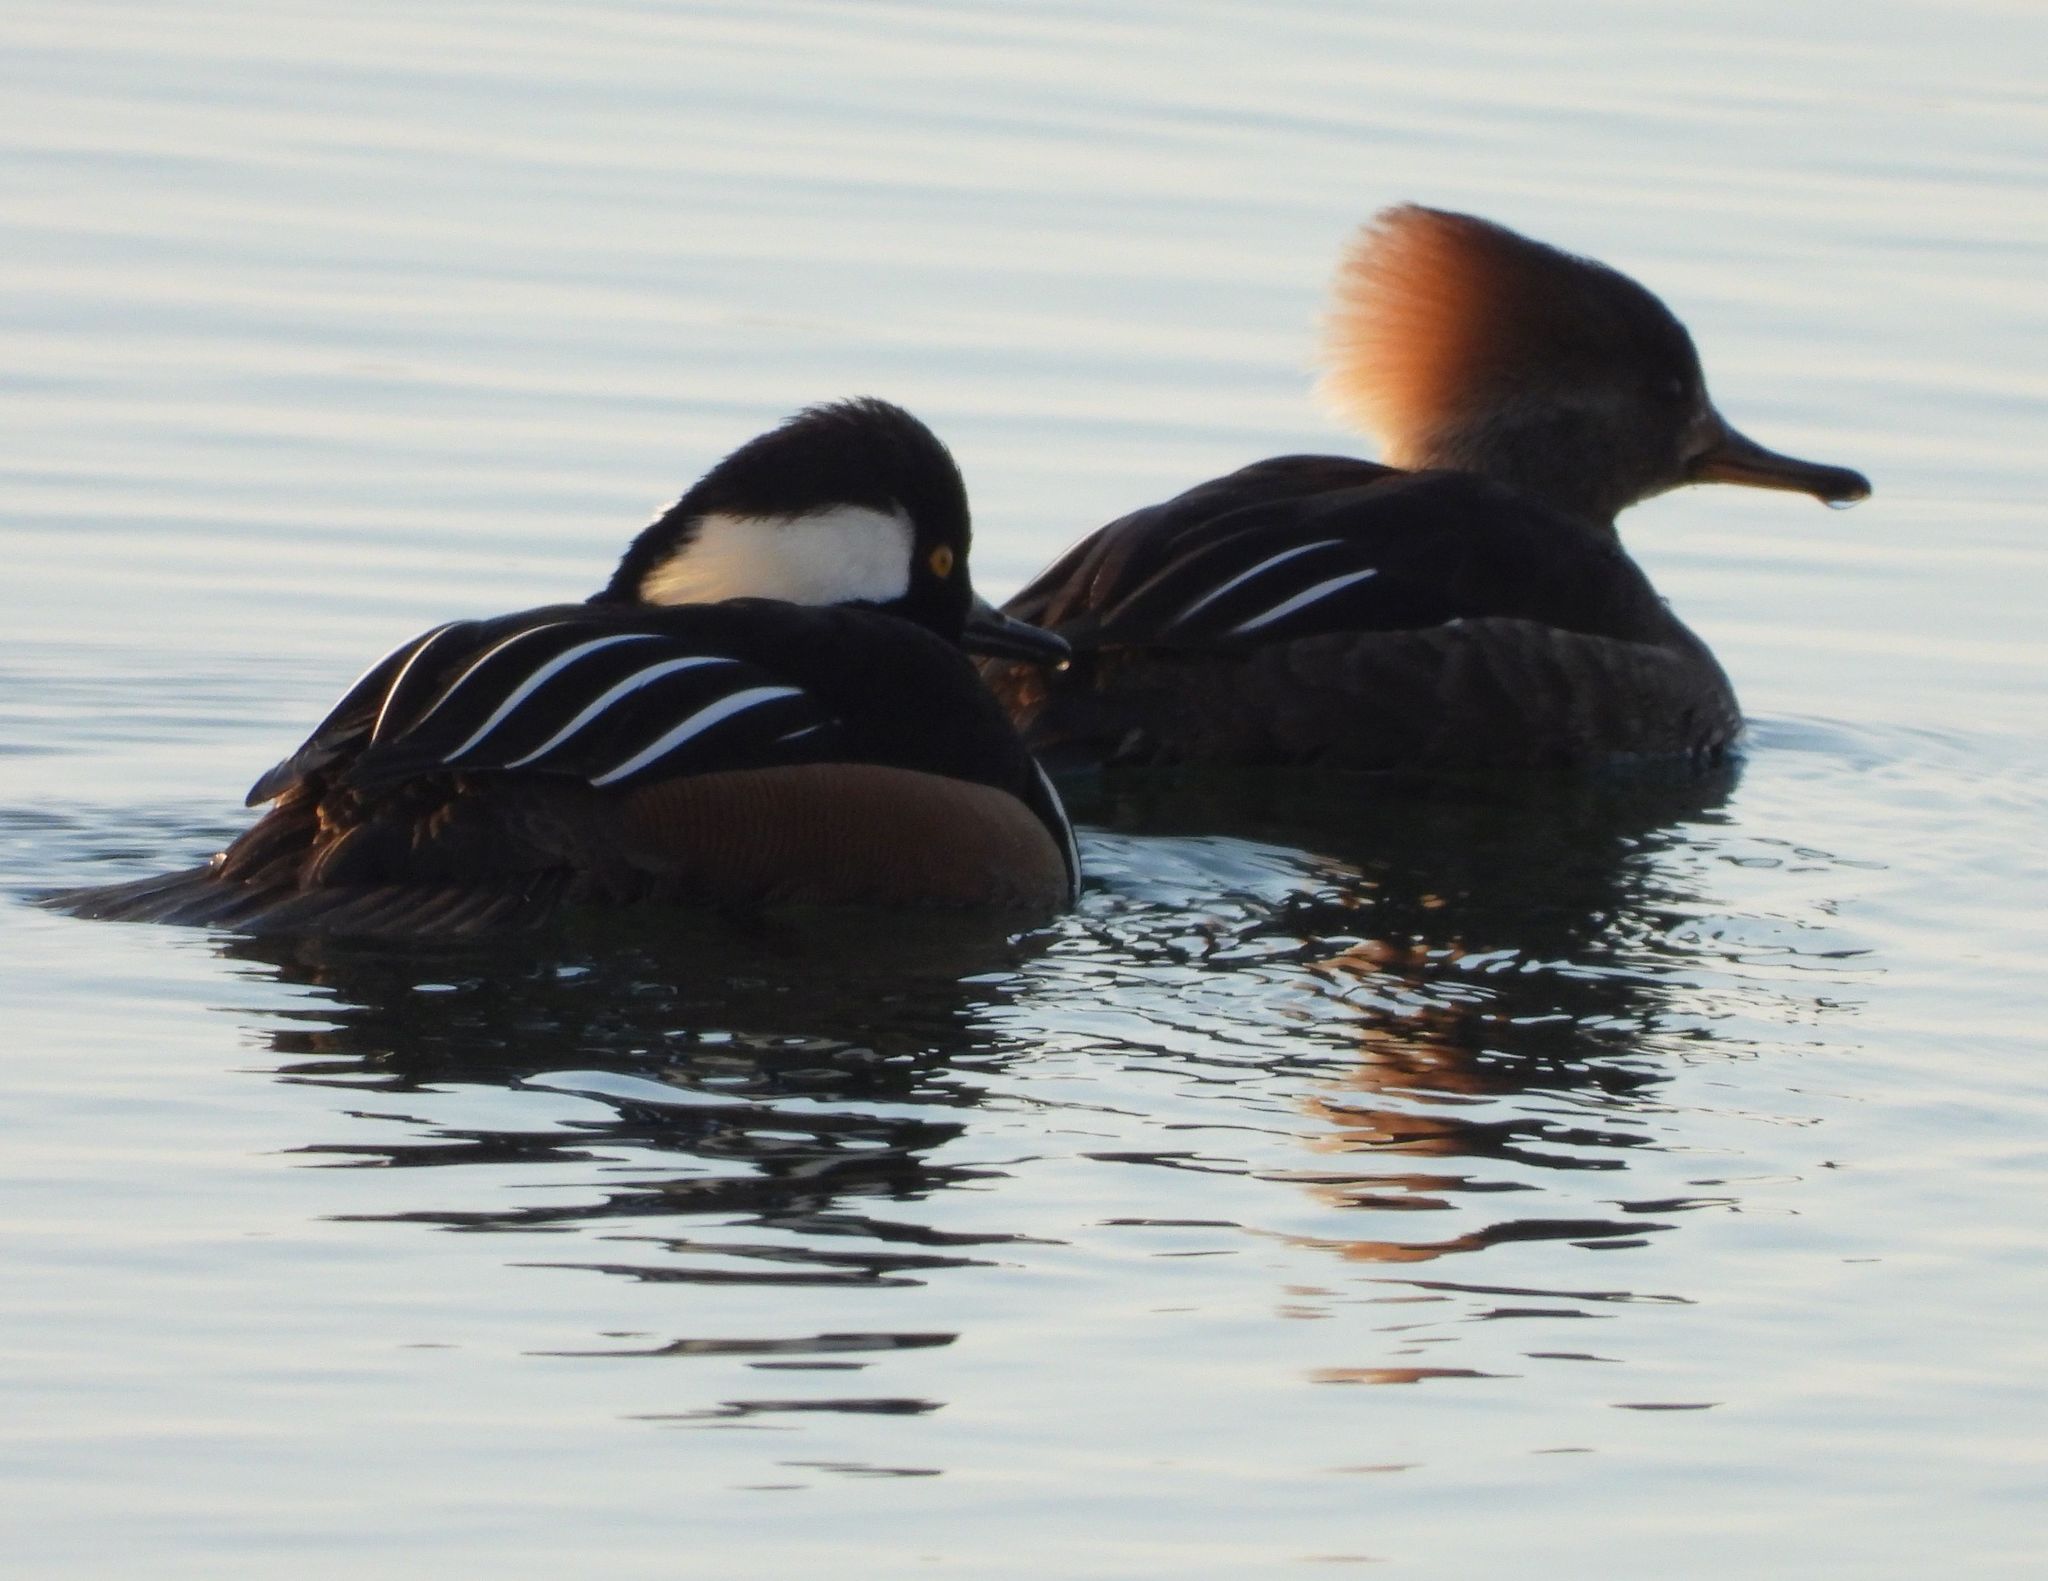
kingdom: Animalia
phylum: Chordata
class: Aves
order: Anseriformes
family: Anatidae
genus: Lophodytes
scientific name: Lophodytes cucullatus
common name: Hooded merganser
